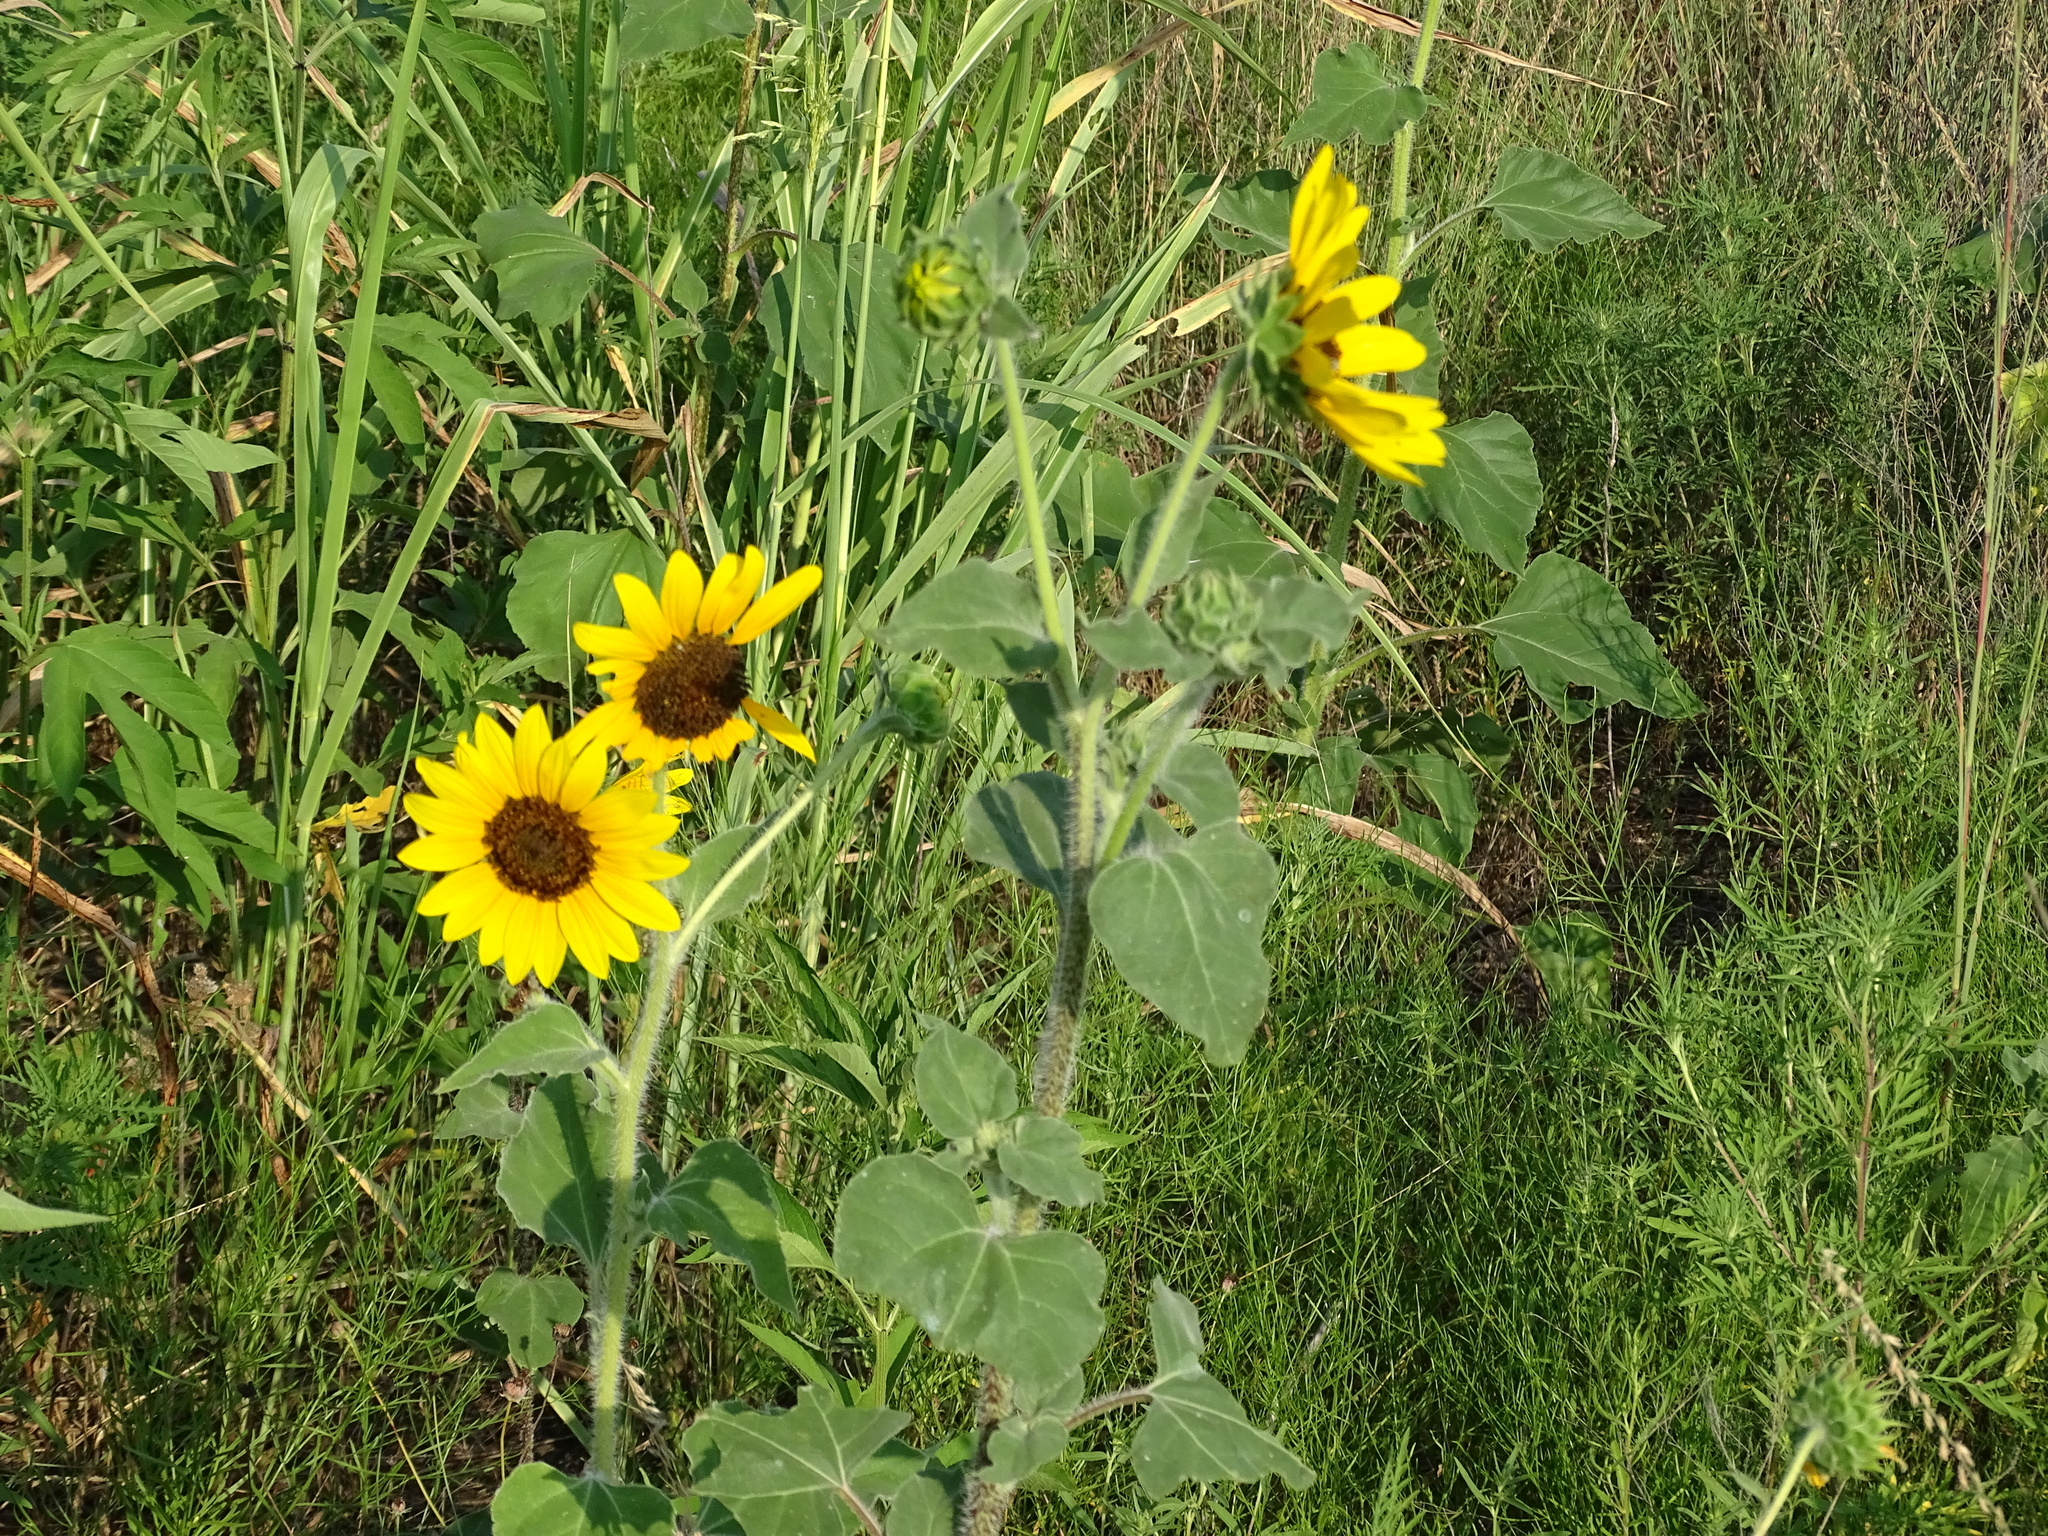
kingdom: Plantae
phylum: Tracheophyta
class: Magnoliopsida
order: Asterales
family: Asteraceae
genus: Helianthus
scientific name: Helianthus annuus
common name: Sunflower
